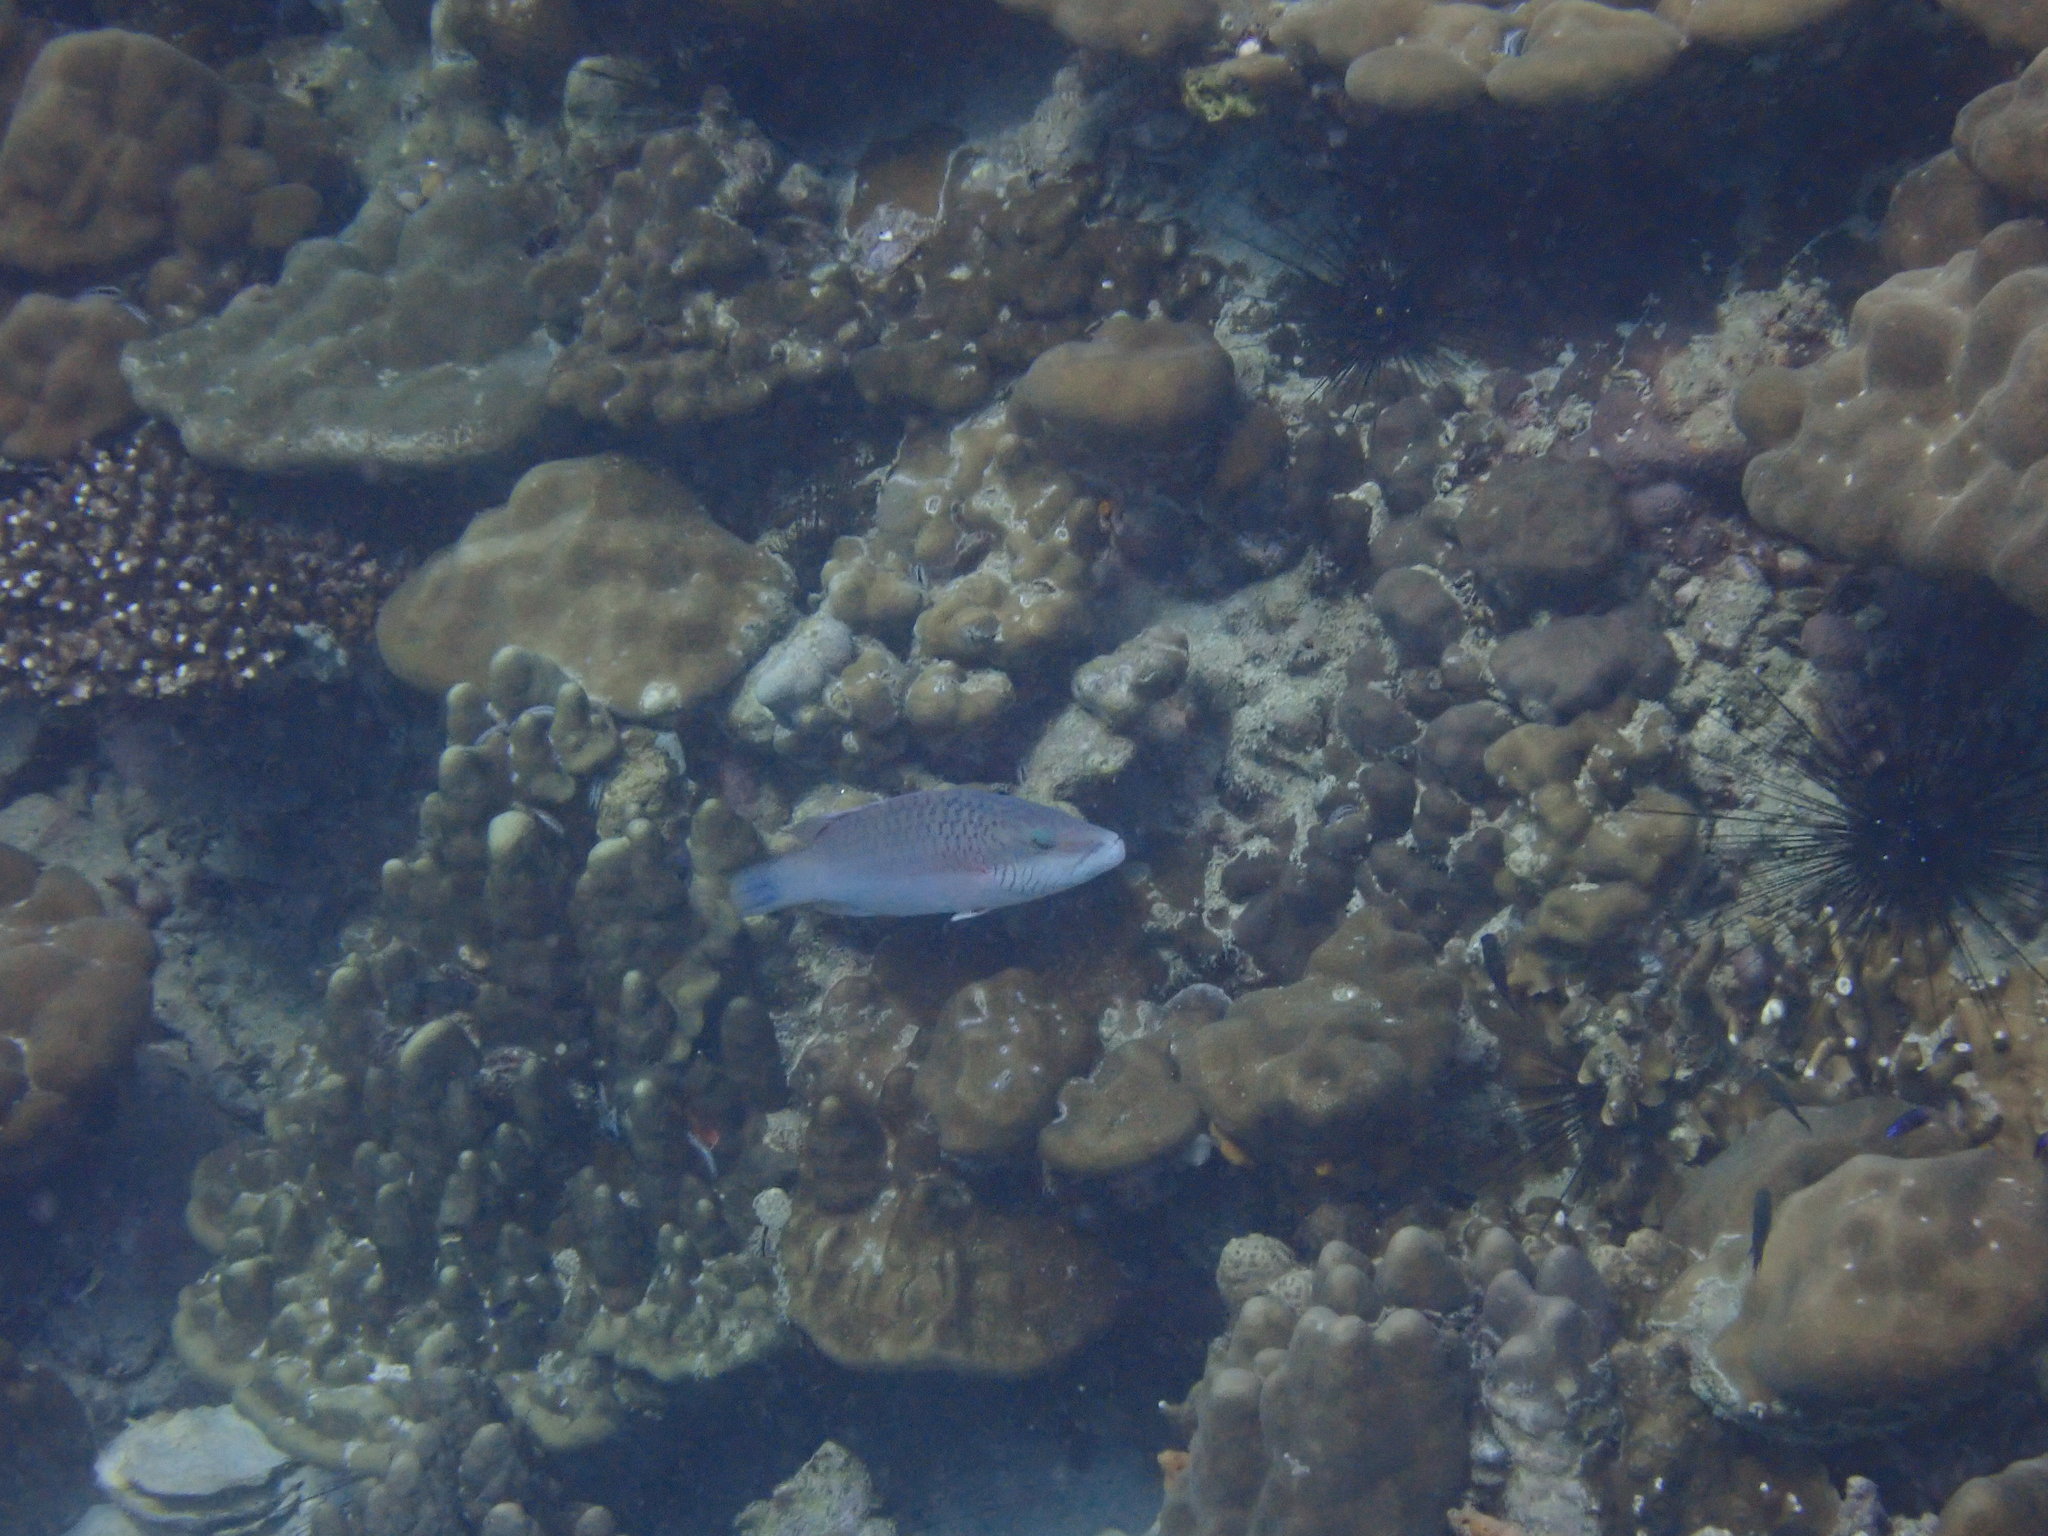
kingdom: Animalia
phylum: Chordata
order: Perciformes
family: Labridae
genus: Oxycheilinus
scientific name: Oxycheilinus digramma
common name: Bandcheek wrasse
